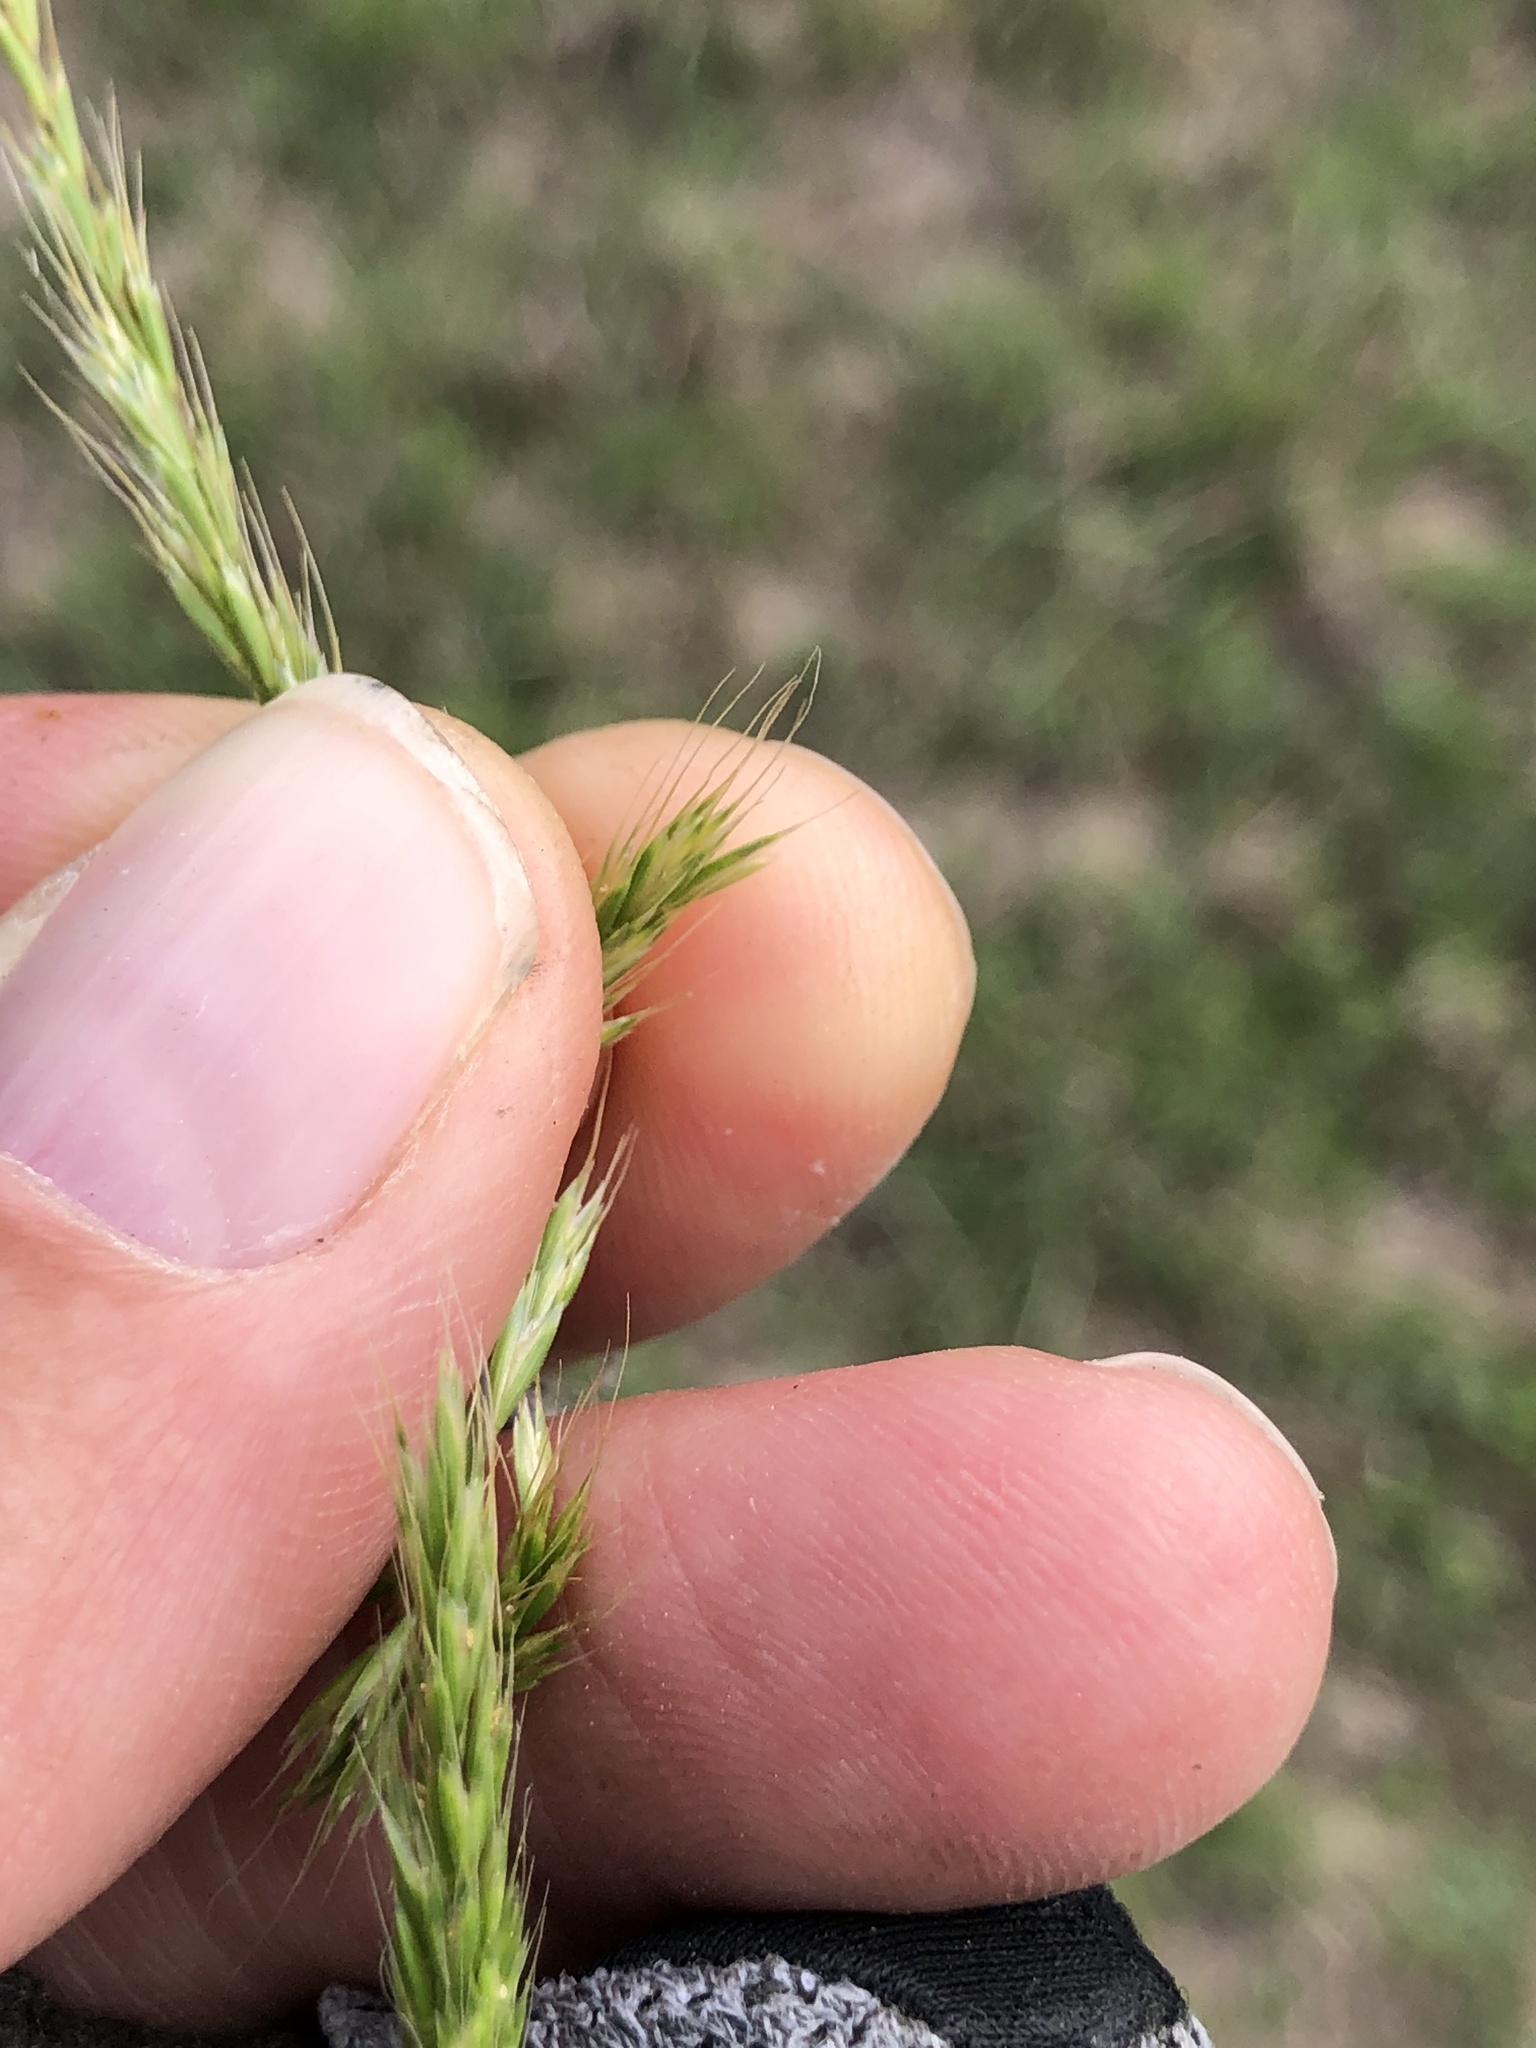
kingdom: Plantae
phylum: Tracheophyta
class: Liliopsida
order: Poales
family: Poaceae
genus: Trisetum
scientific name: Trisetum interruptum
